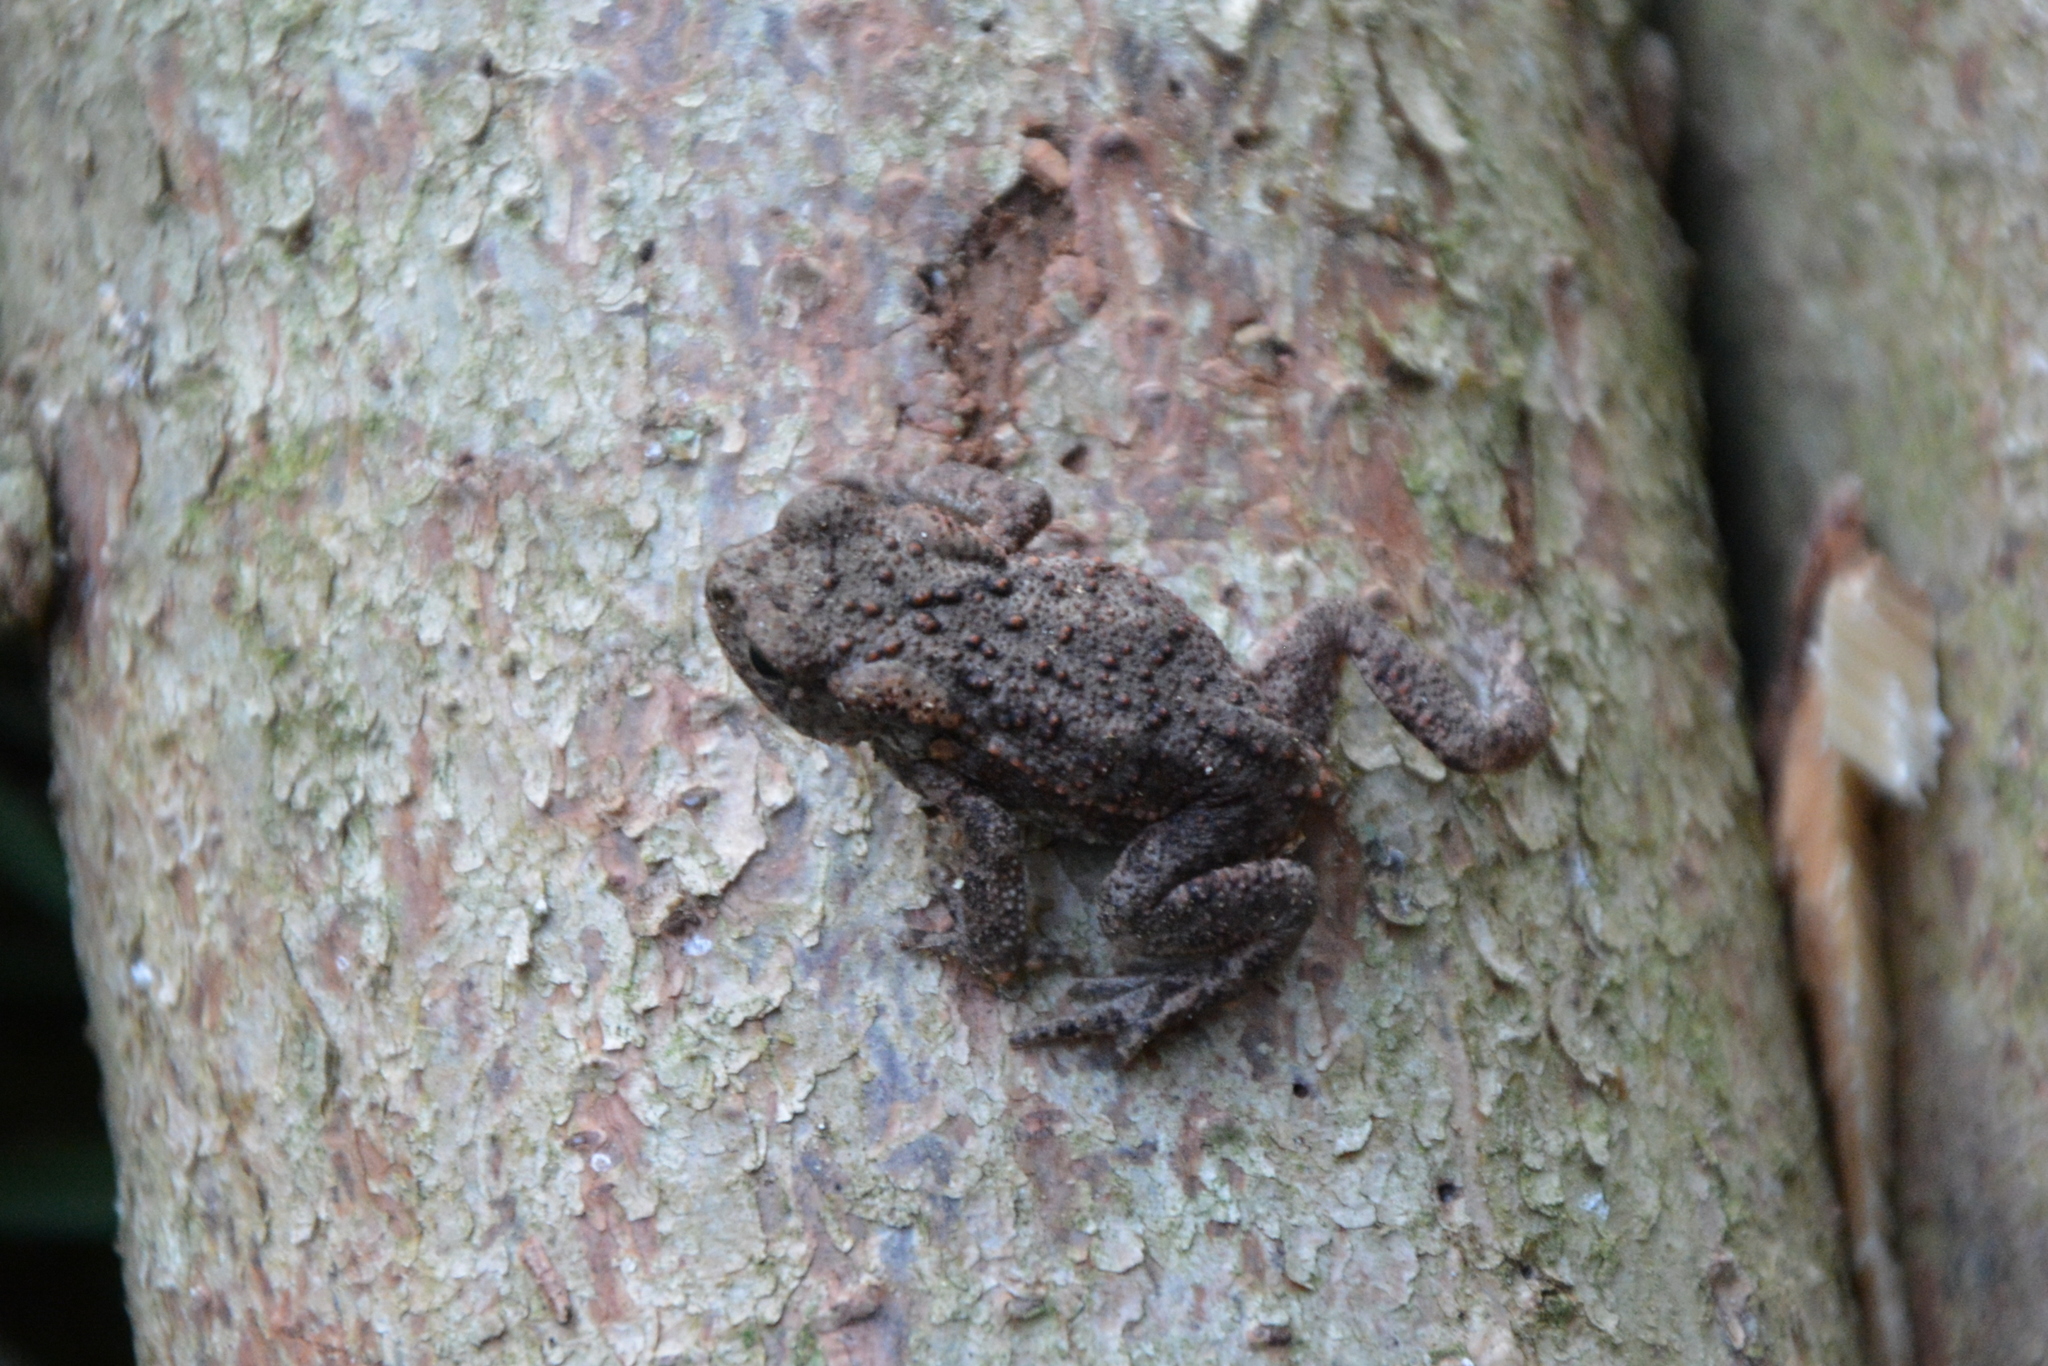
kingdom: Animalia
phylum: Chordata
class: Amphibia
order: Anura
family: Bufonidae
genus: Bufo
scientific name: Bufo bufo
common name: Common toad
